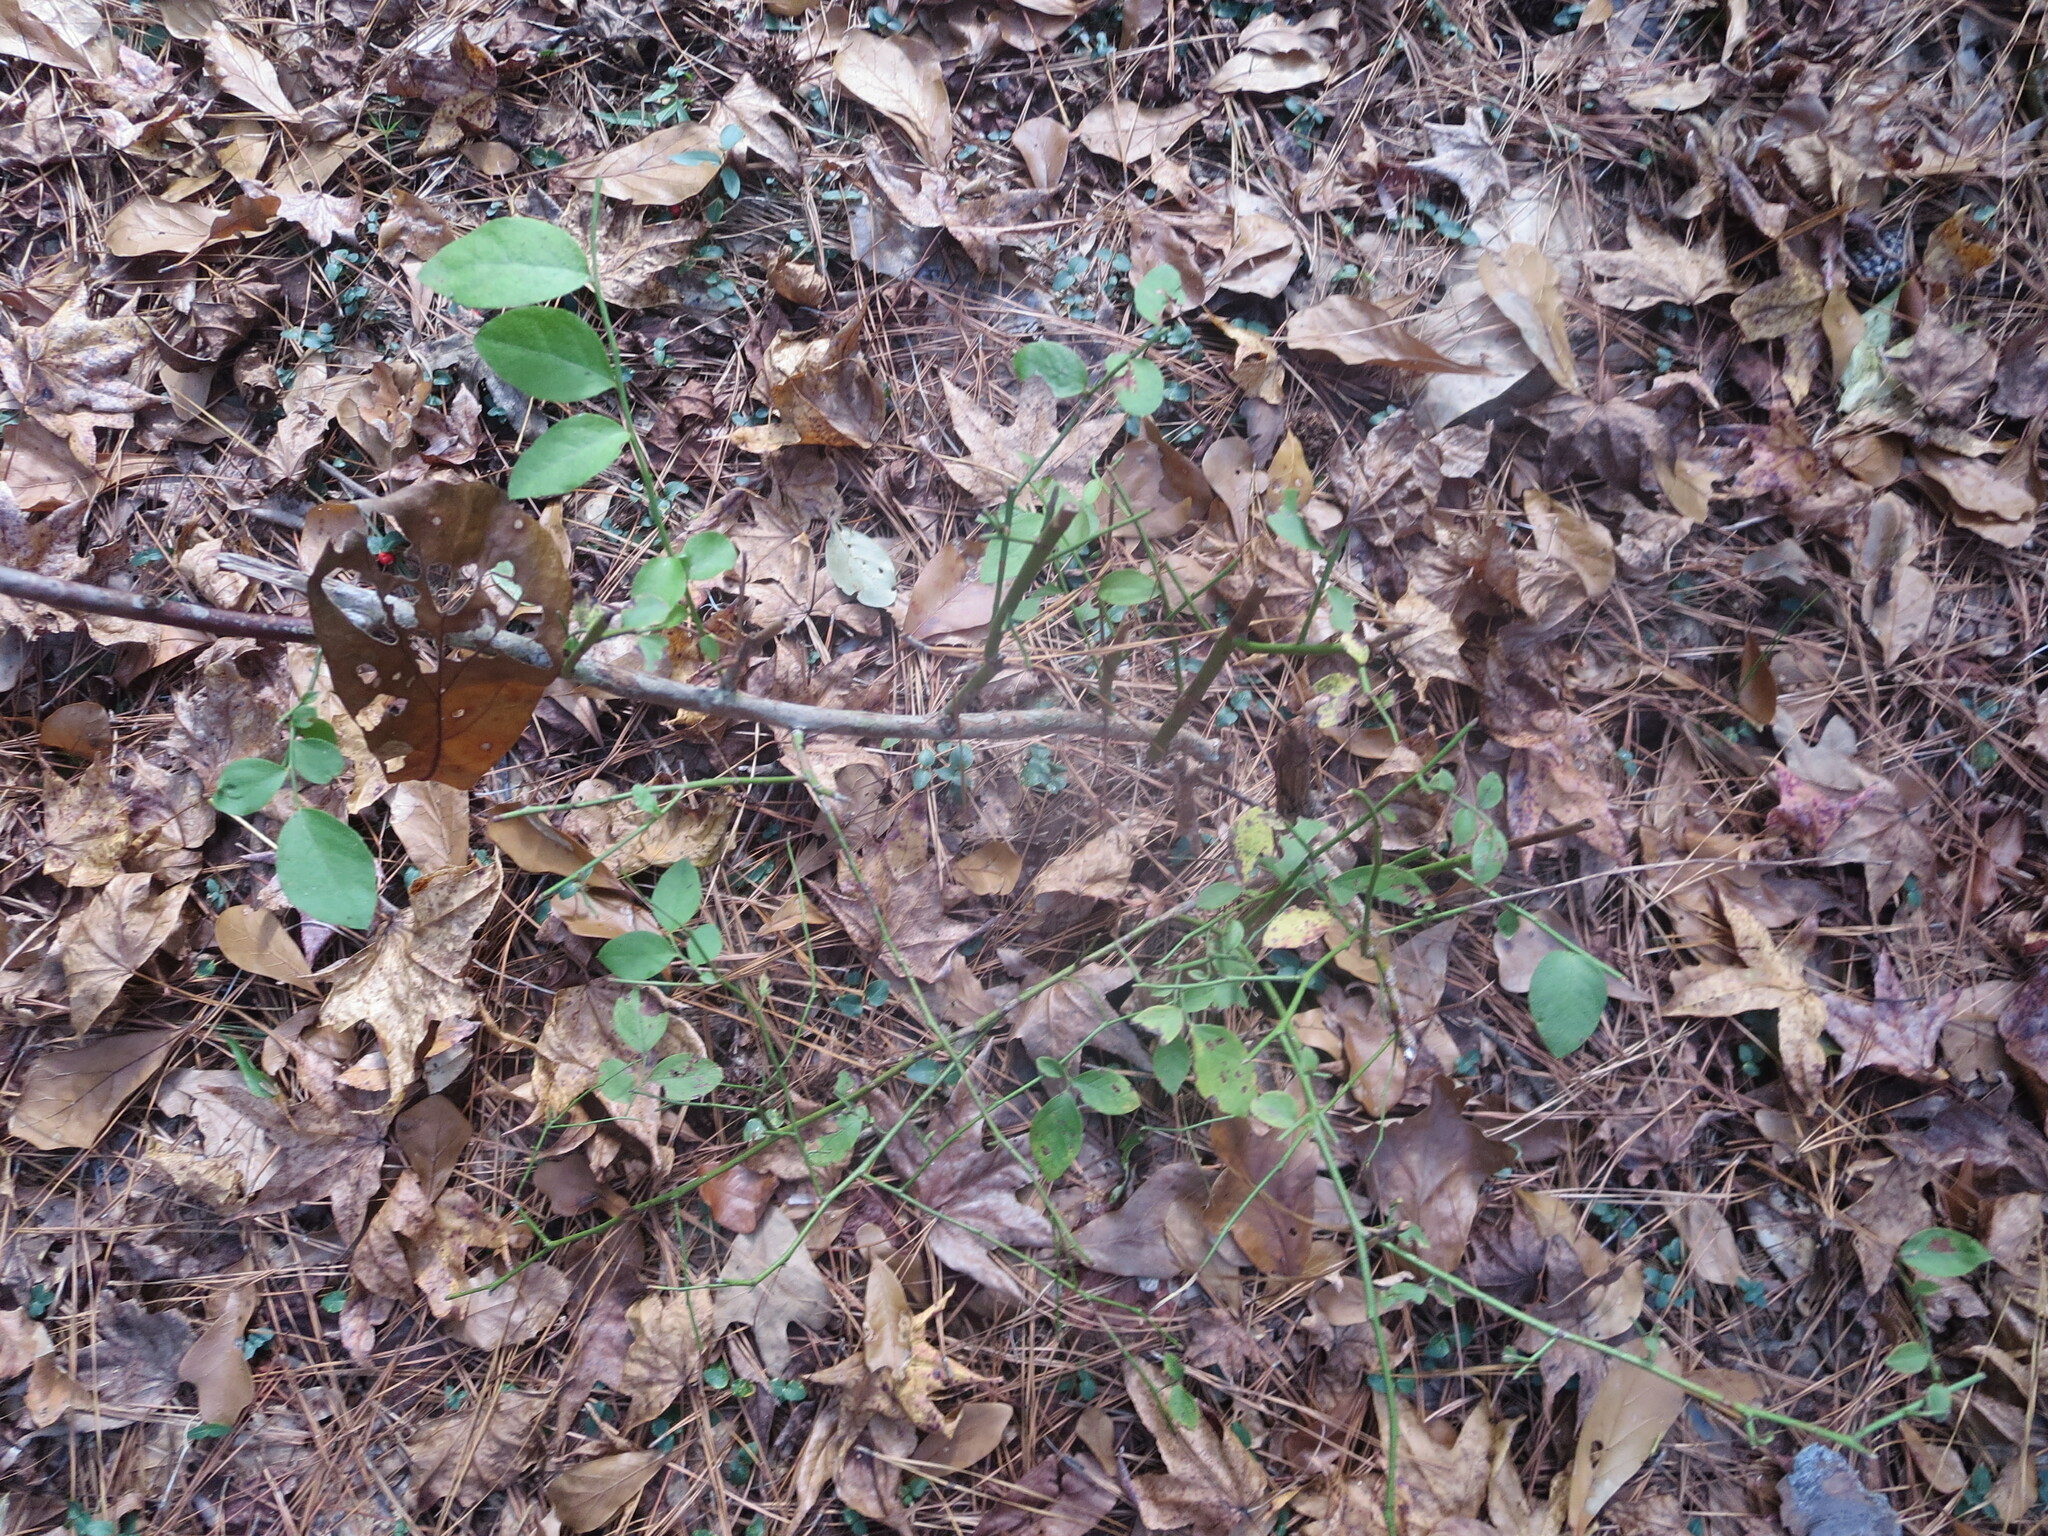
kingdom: Plantae
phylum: Tracheophyta
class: Magnoliopsida
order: Gentianales
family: Rubiaceae
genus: Mitchella
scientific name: Mitchella repens
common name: Partridge-berry
